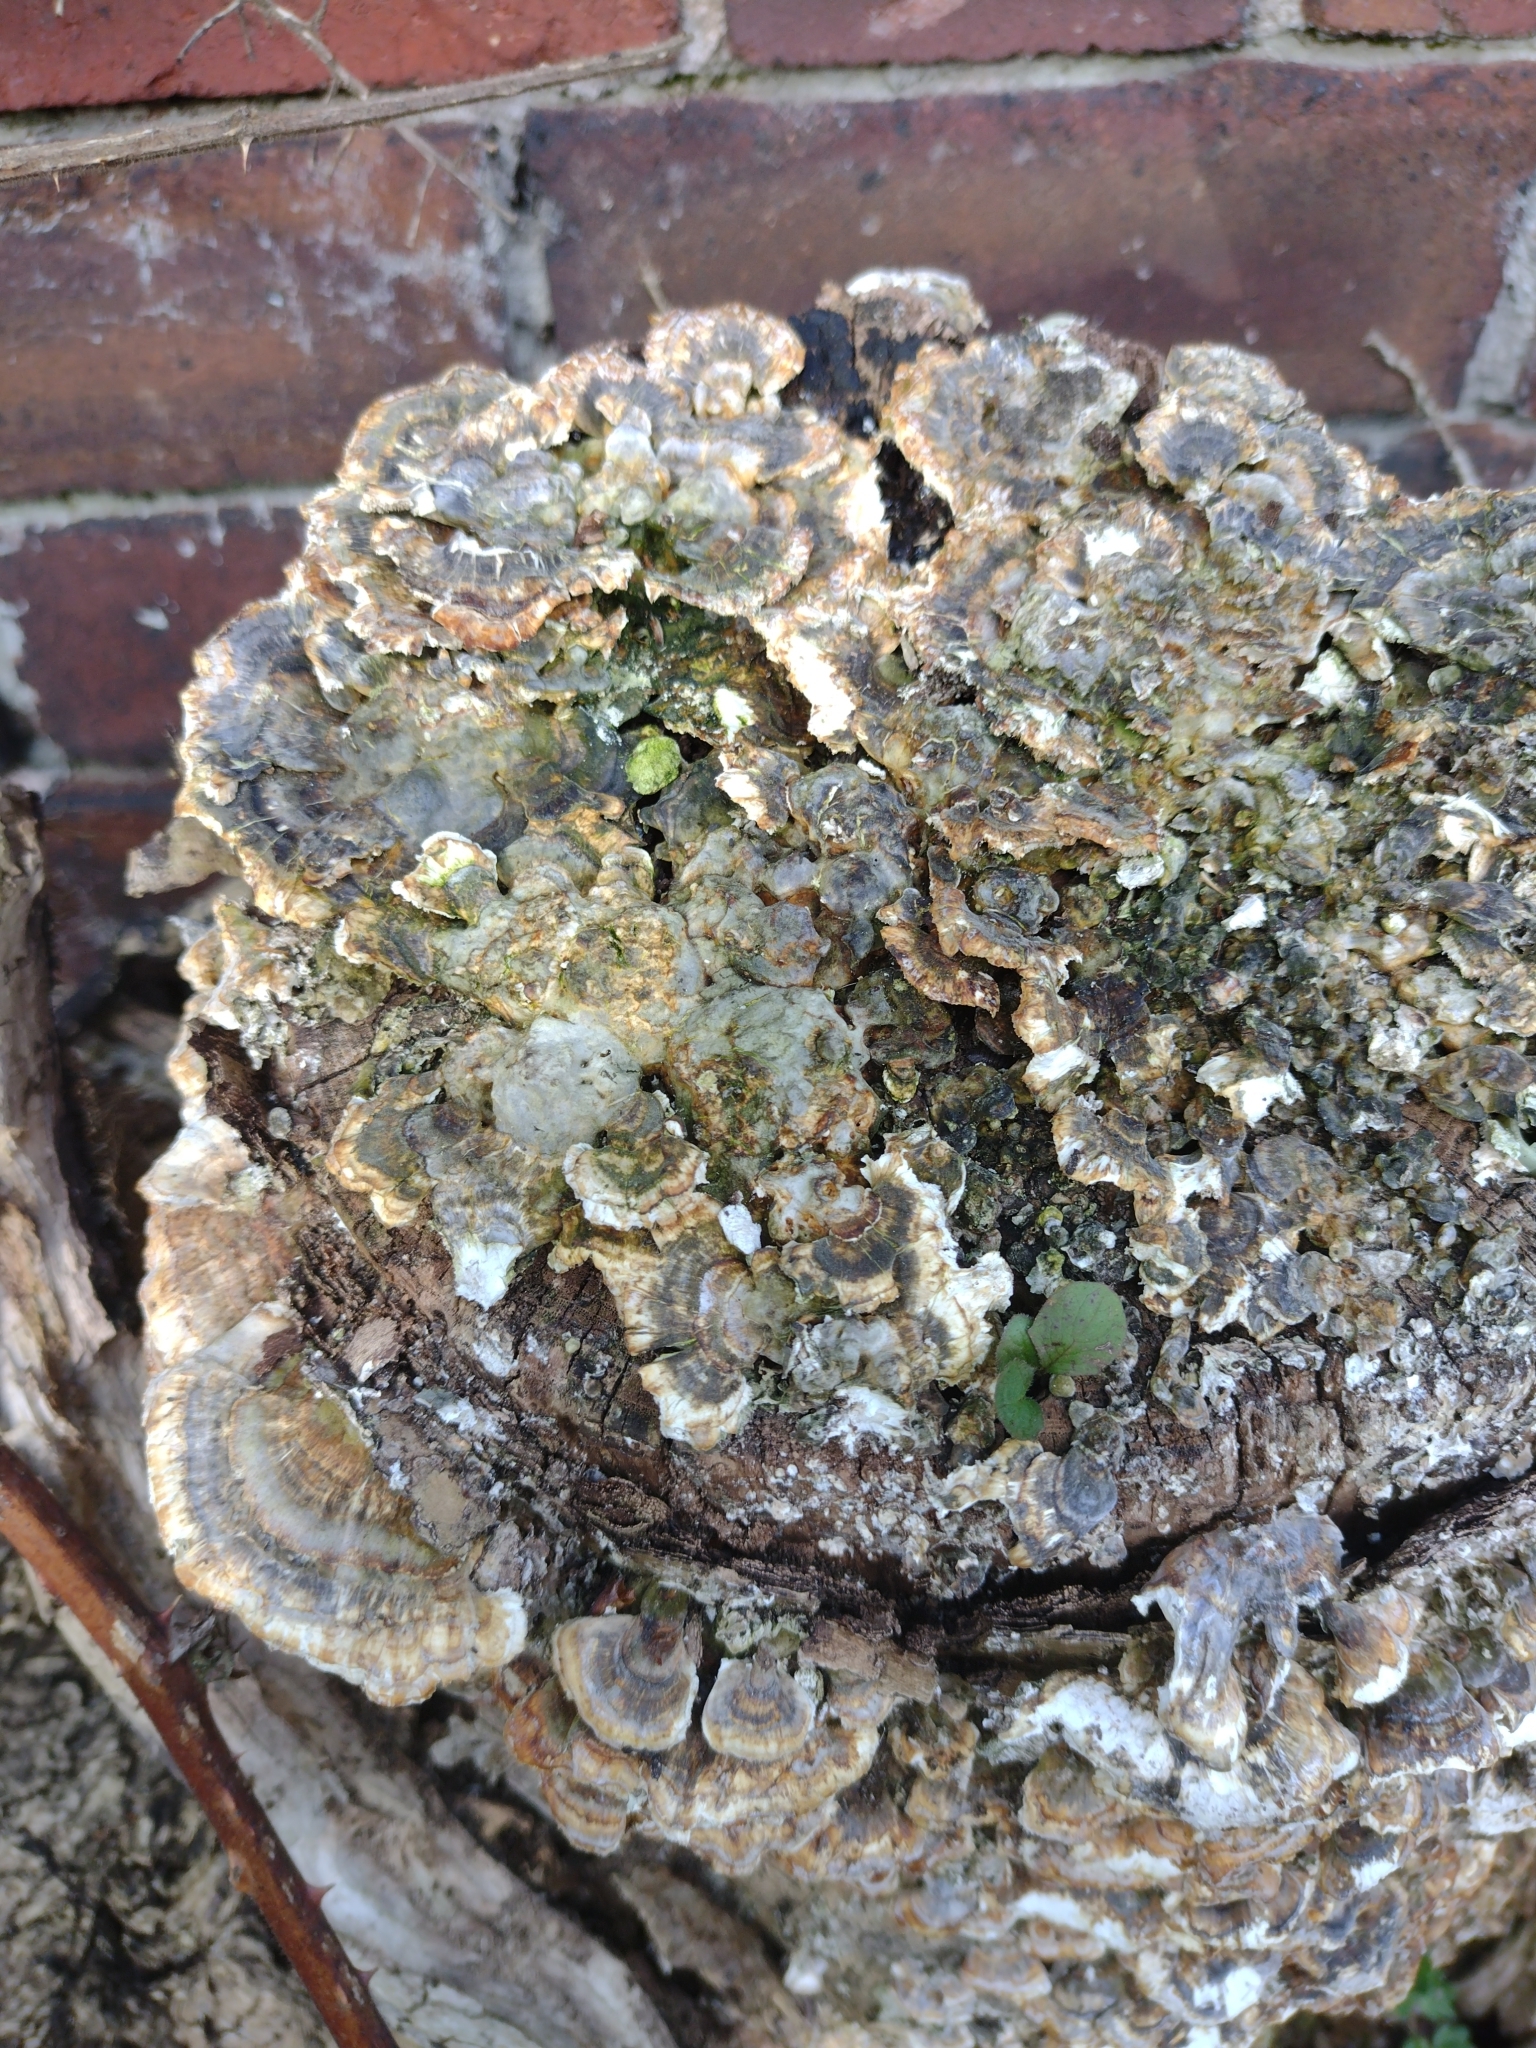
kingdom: Fungi
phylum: Basidiomycota
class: Agaricomycetes
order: Polyporales
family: Polyporaceae
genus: Trametes
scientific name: Trametes versicolor
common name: Turkeytail
